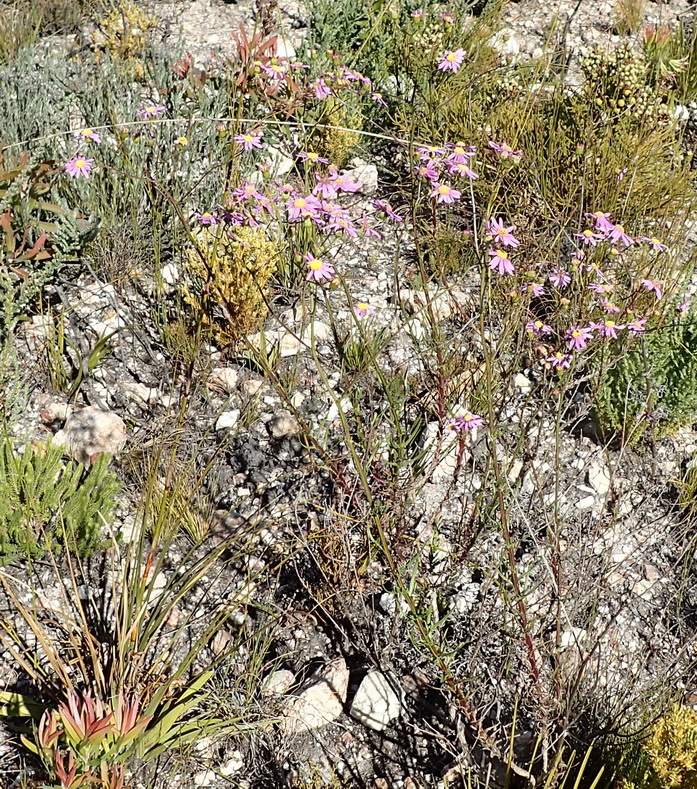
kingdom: Plantae
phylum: Tracheophyta
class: Magnoliopsida
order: Asterales
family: Asteraceae
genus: Senecio
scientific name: Senecio umbellatus
